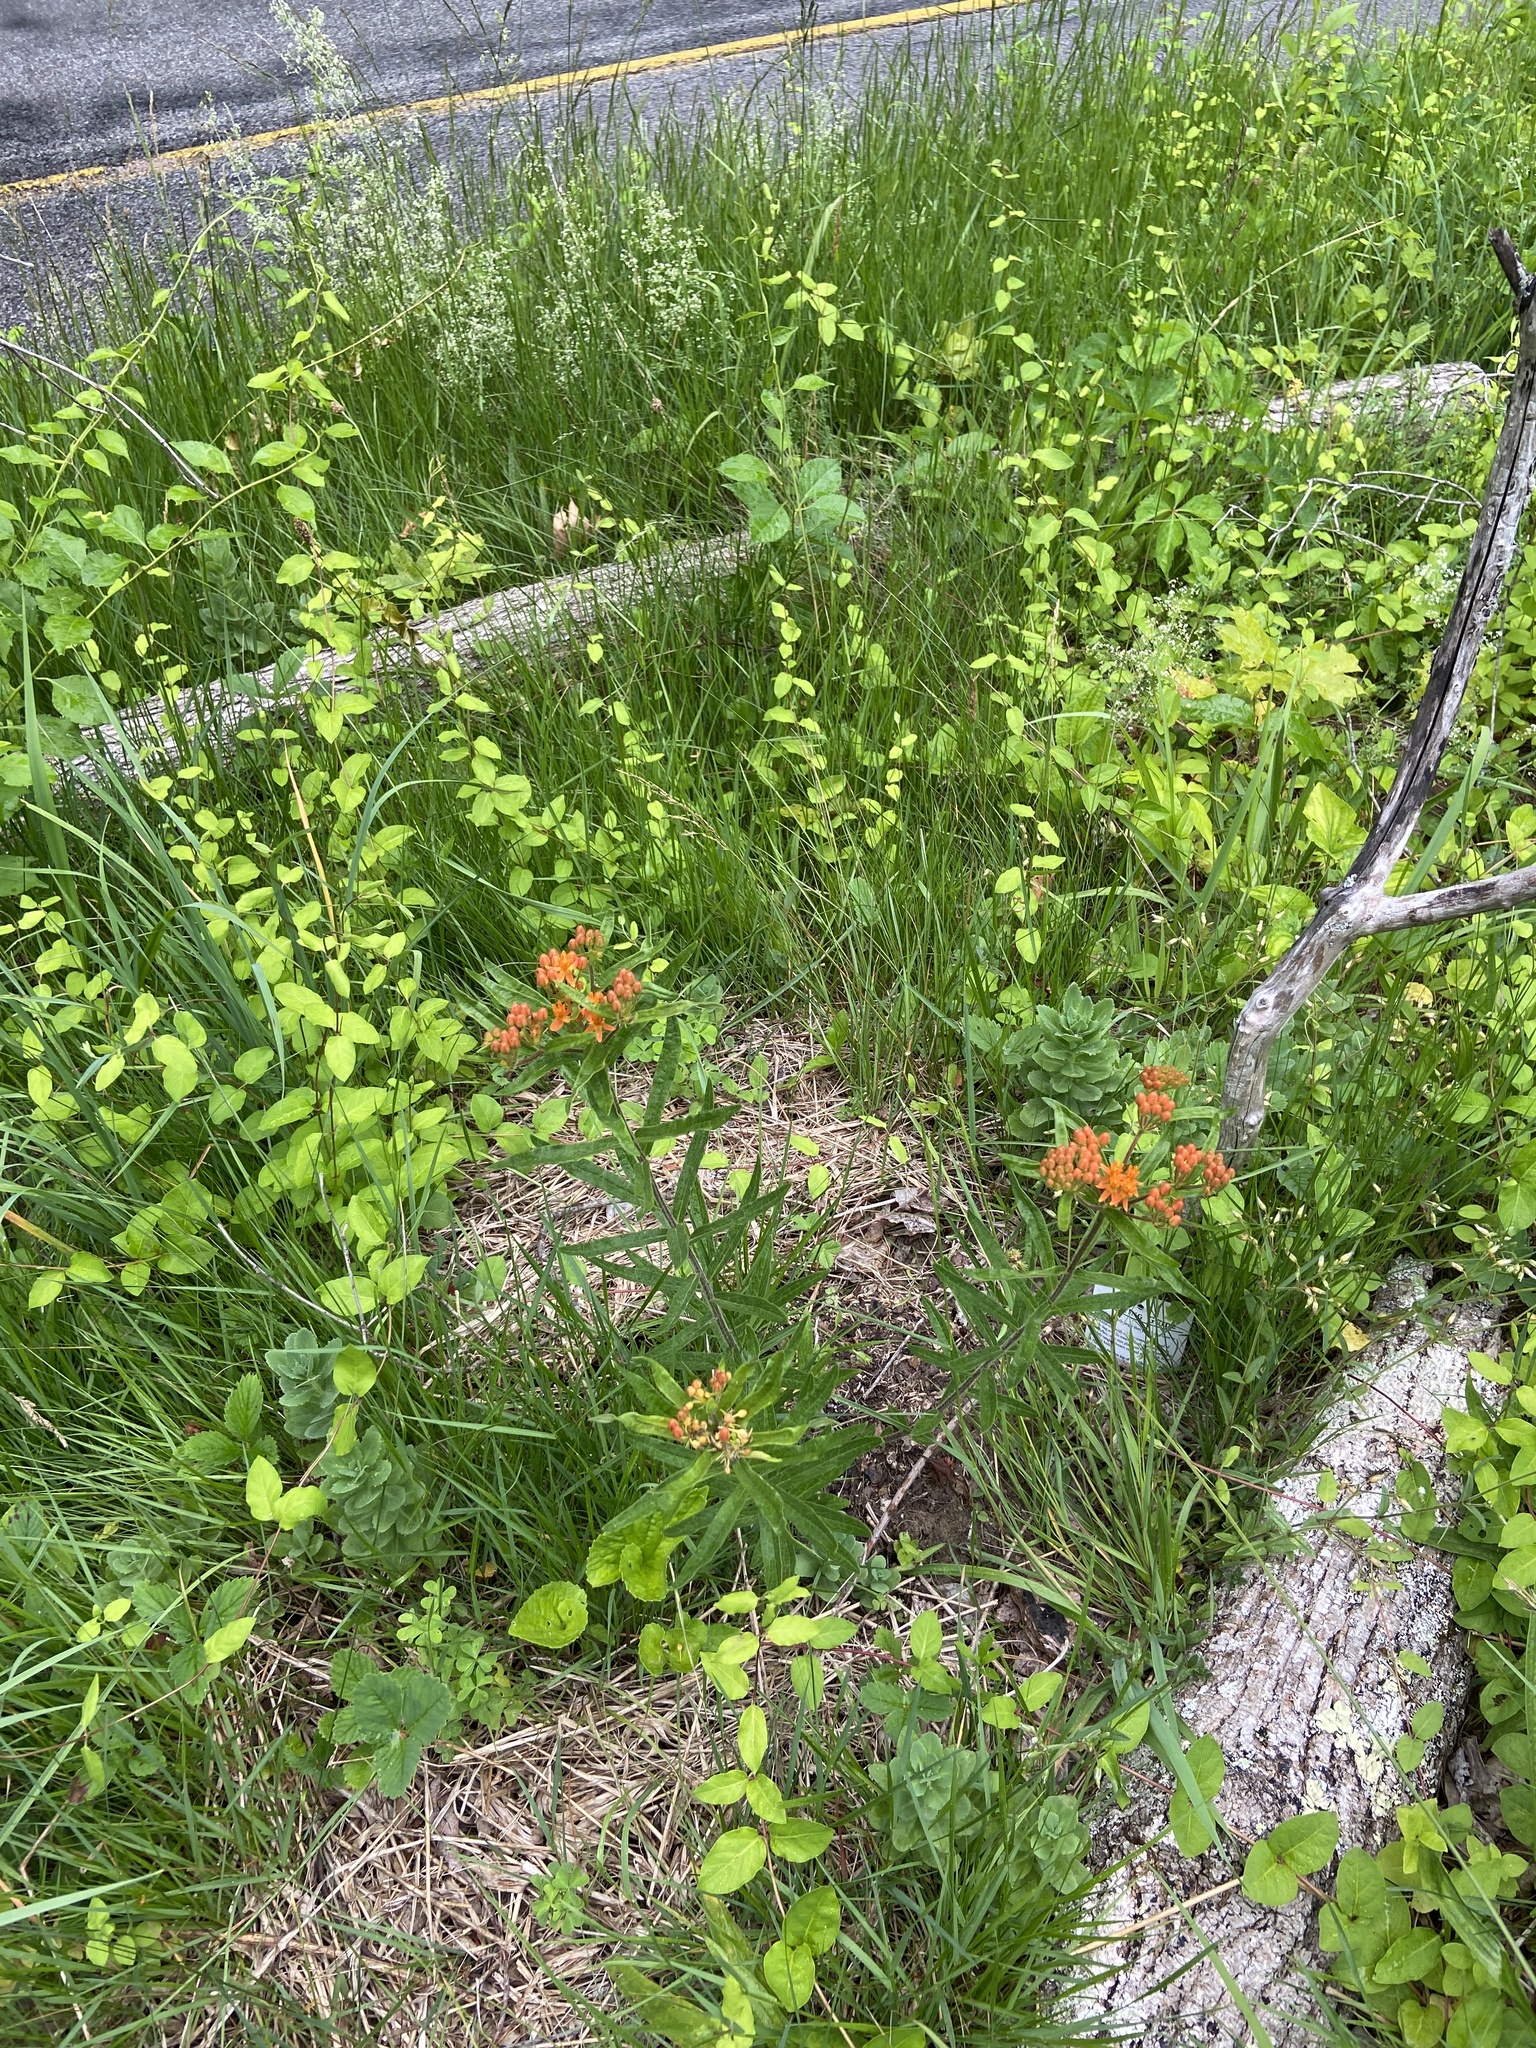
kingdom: Plantae
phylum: Tracheophyta
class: Magnoliopsida
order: Gentianales
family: Apocynaceae
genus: Asclepias
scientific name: Asclepias tuberosa
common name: Butterfly milkweed
